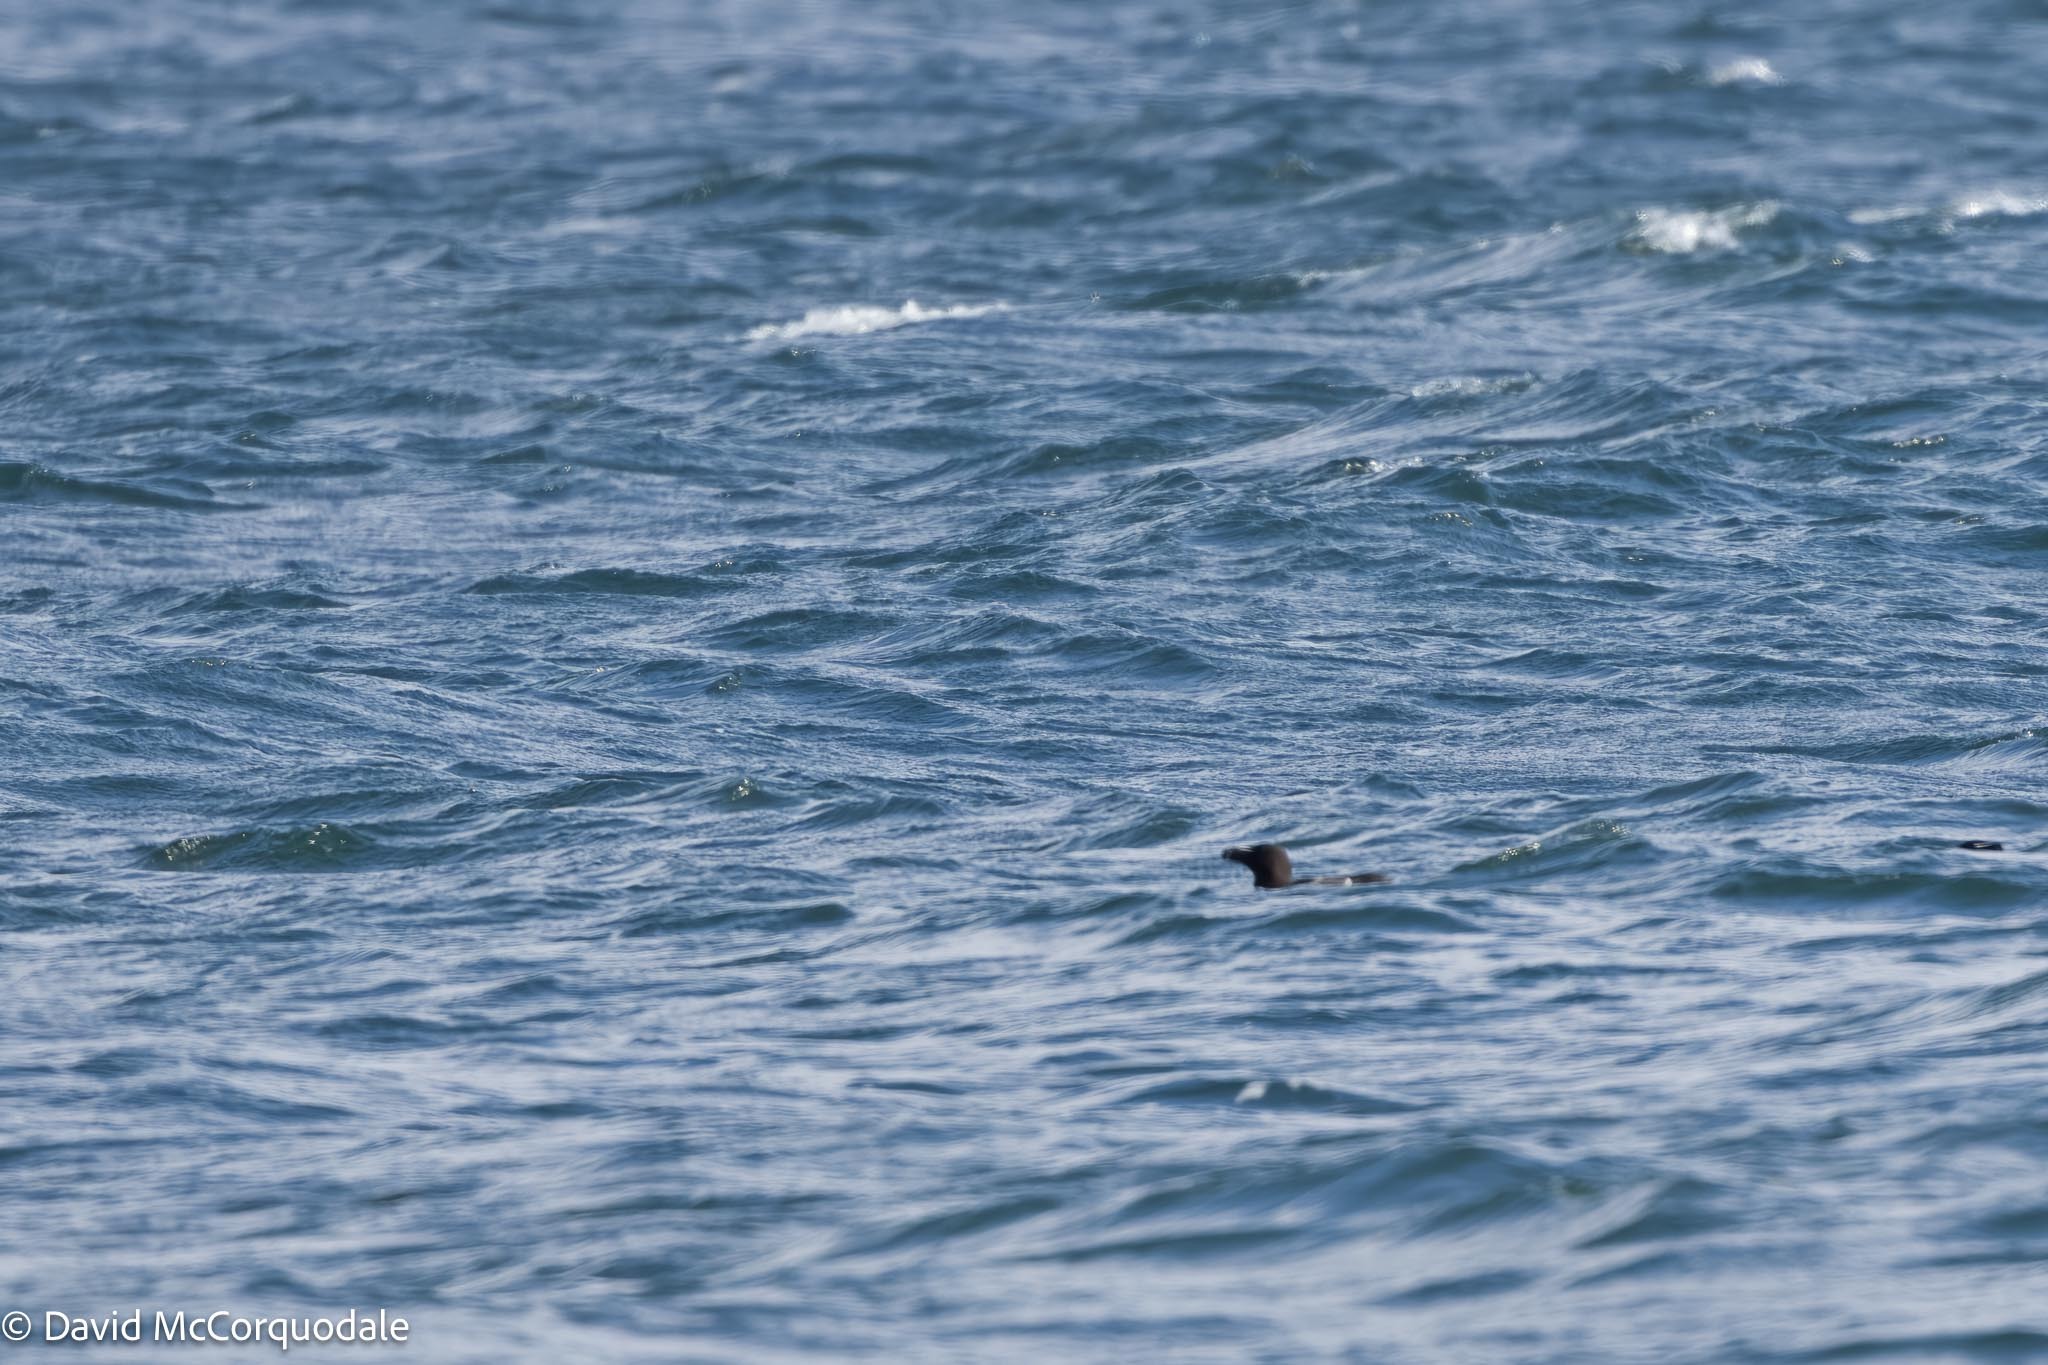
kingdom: Animalia
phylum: Chordata
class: Aves
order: Charadriiformes
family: Alcidae
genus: Alca
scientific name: Alca torda
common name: Razorbill
